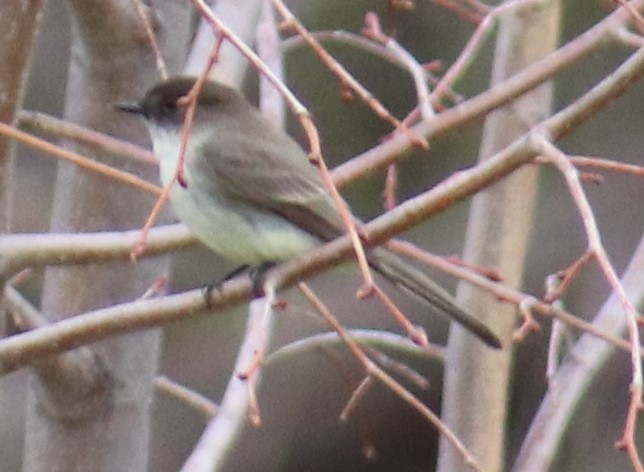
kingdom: Animalia
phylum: Chordata
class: Aves
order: Passeriformes
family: Tyrannidae
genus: Sayornis
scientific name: Sayornis phoebe
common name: Eastern phoebe
